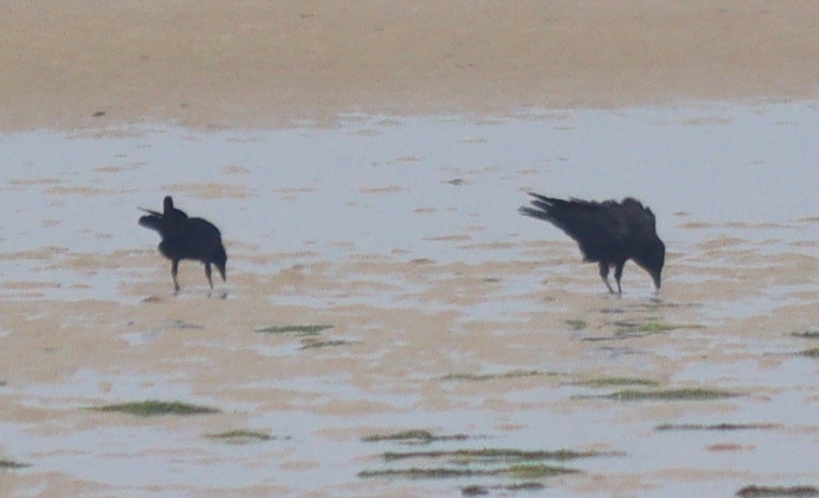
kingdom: Animalia
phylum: Chordata
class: Aves
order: Passeriformes
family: Corvidae
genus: Corvus
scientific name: Corvus corone
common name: Carrion crow
